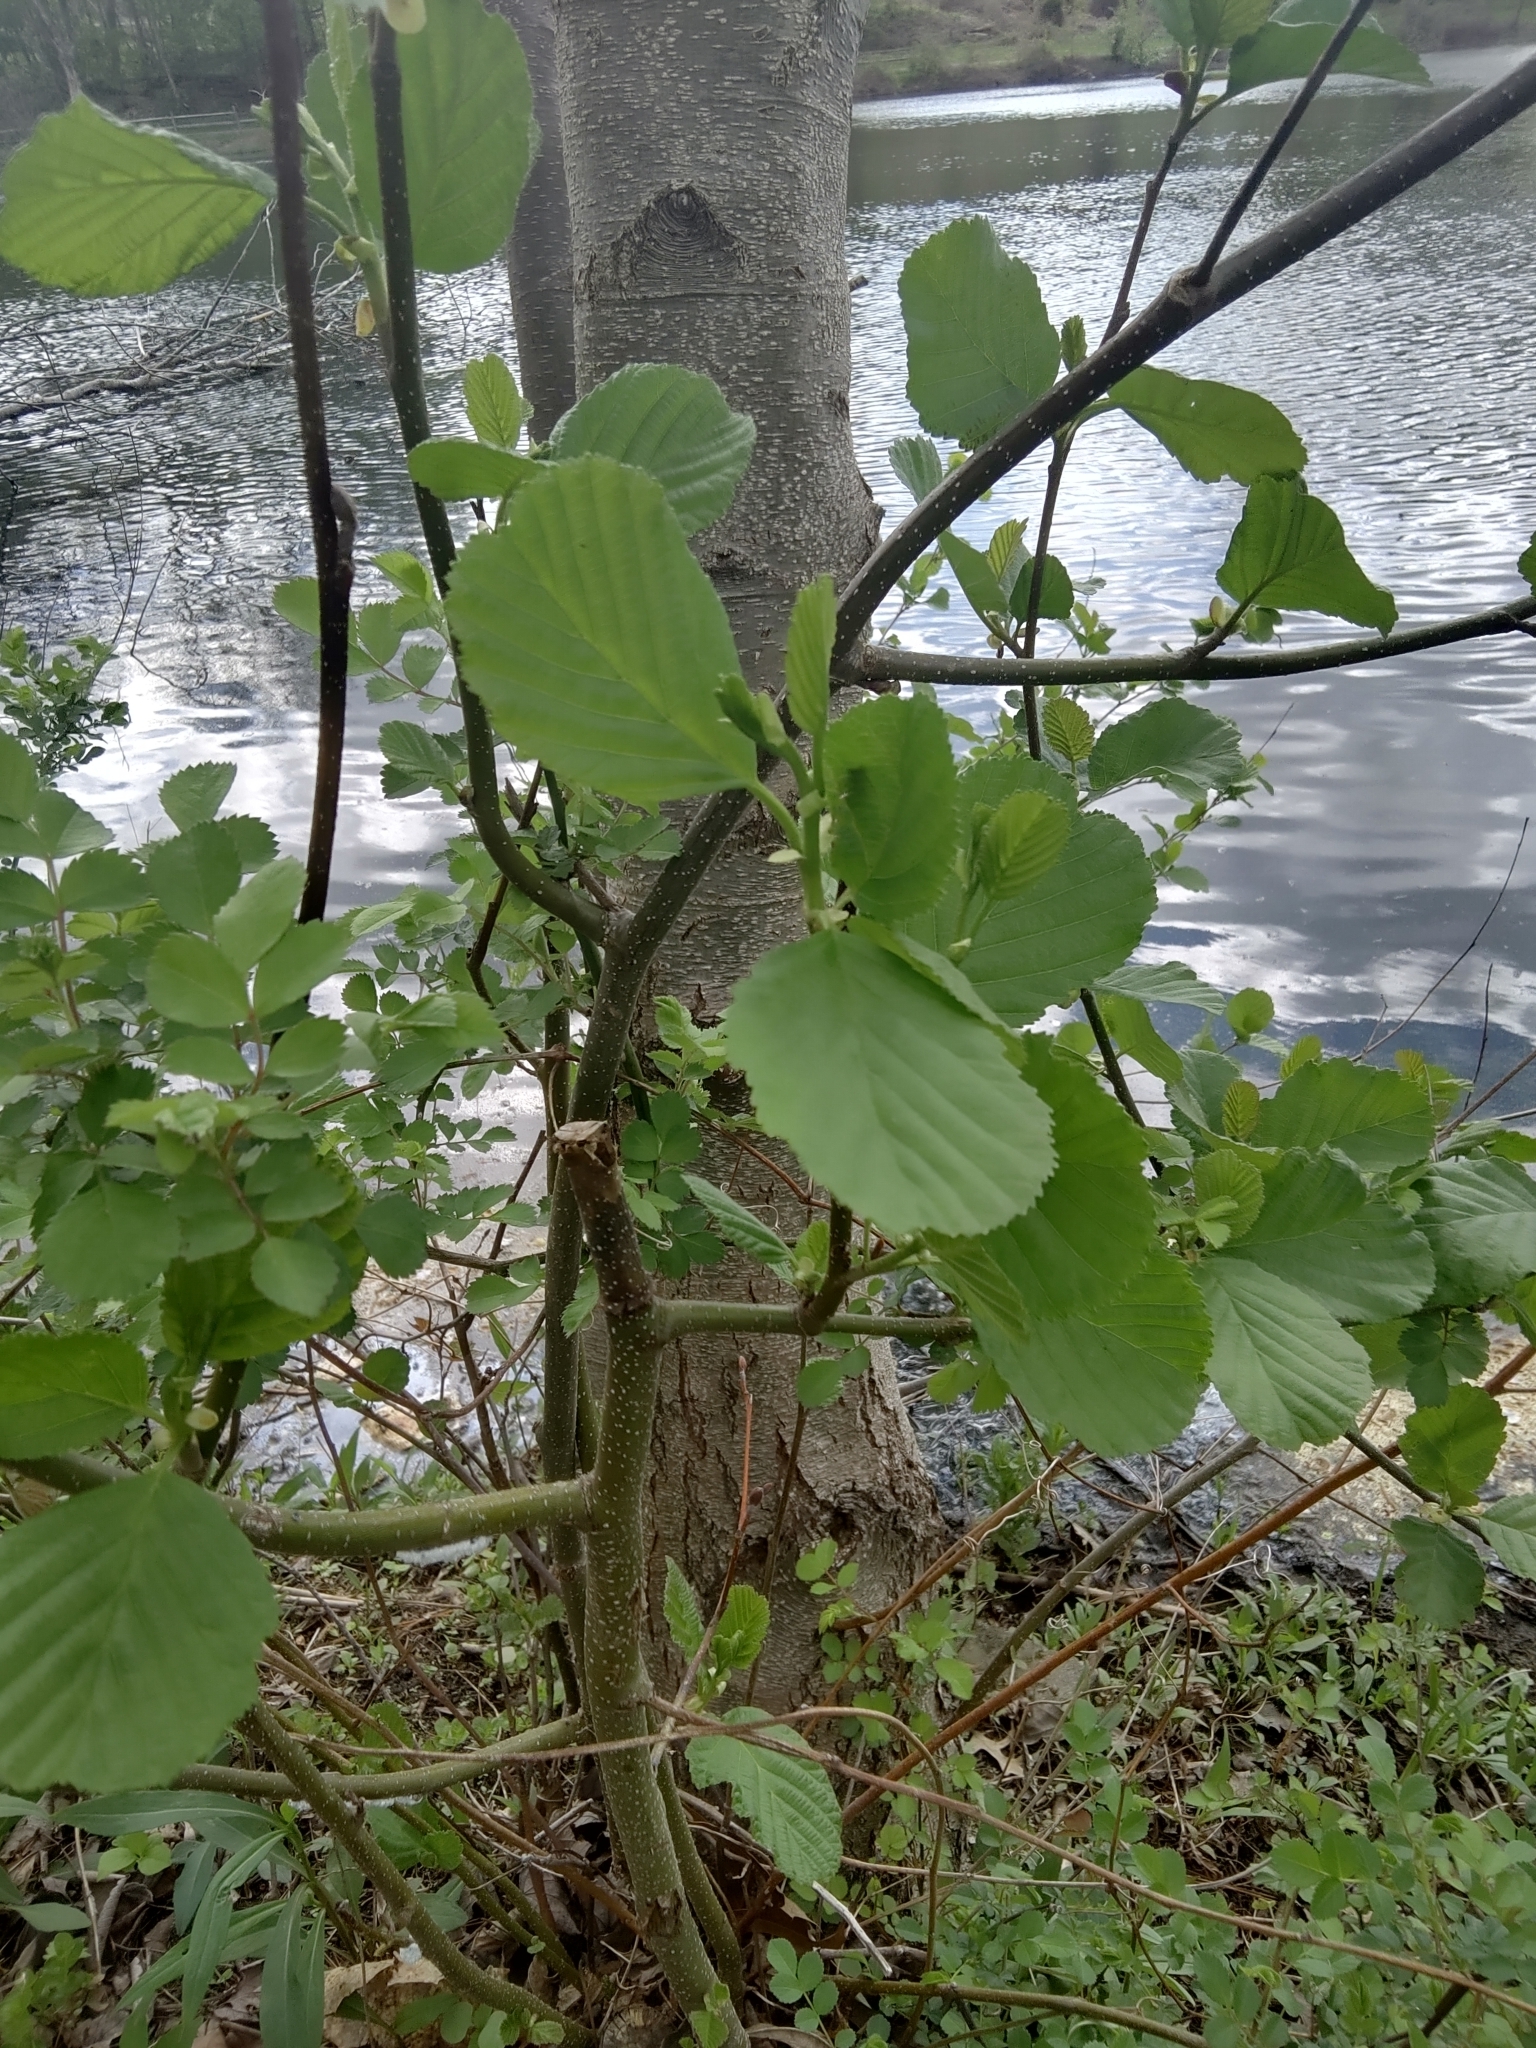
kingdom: Plantae
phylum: Tracheophyta
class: Magnoliopsida
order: Fagales
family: Betulaceae
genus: Alnus
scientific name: Alnus glutinosa
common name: Black alder
